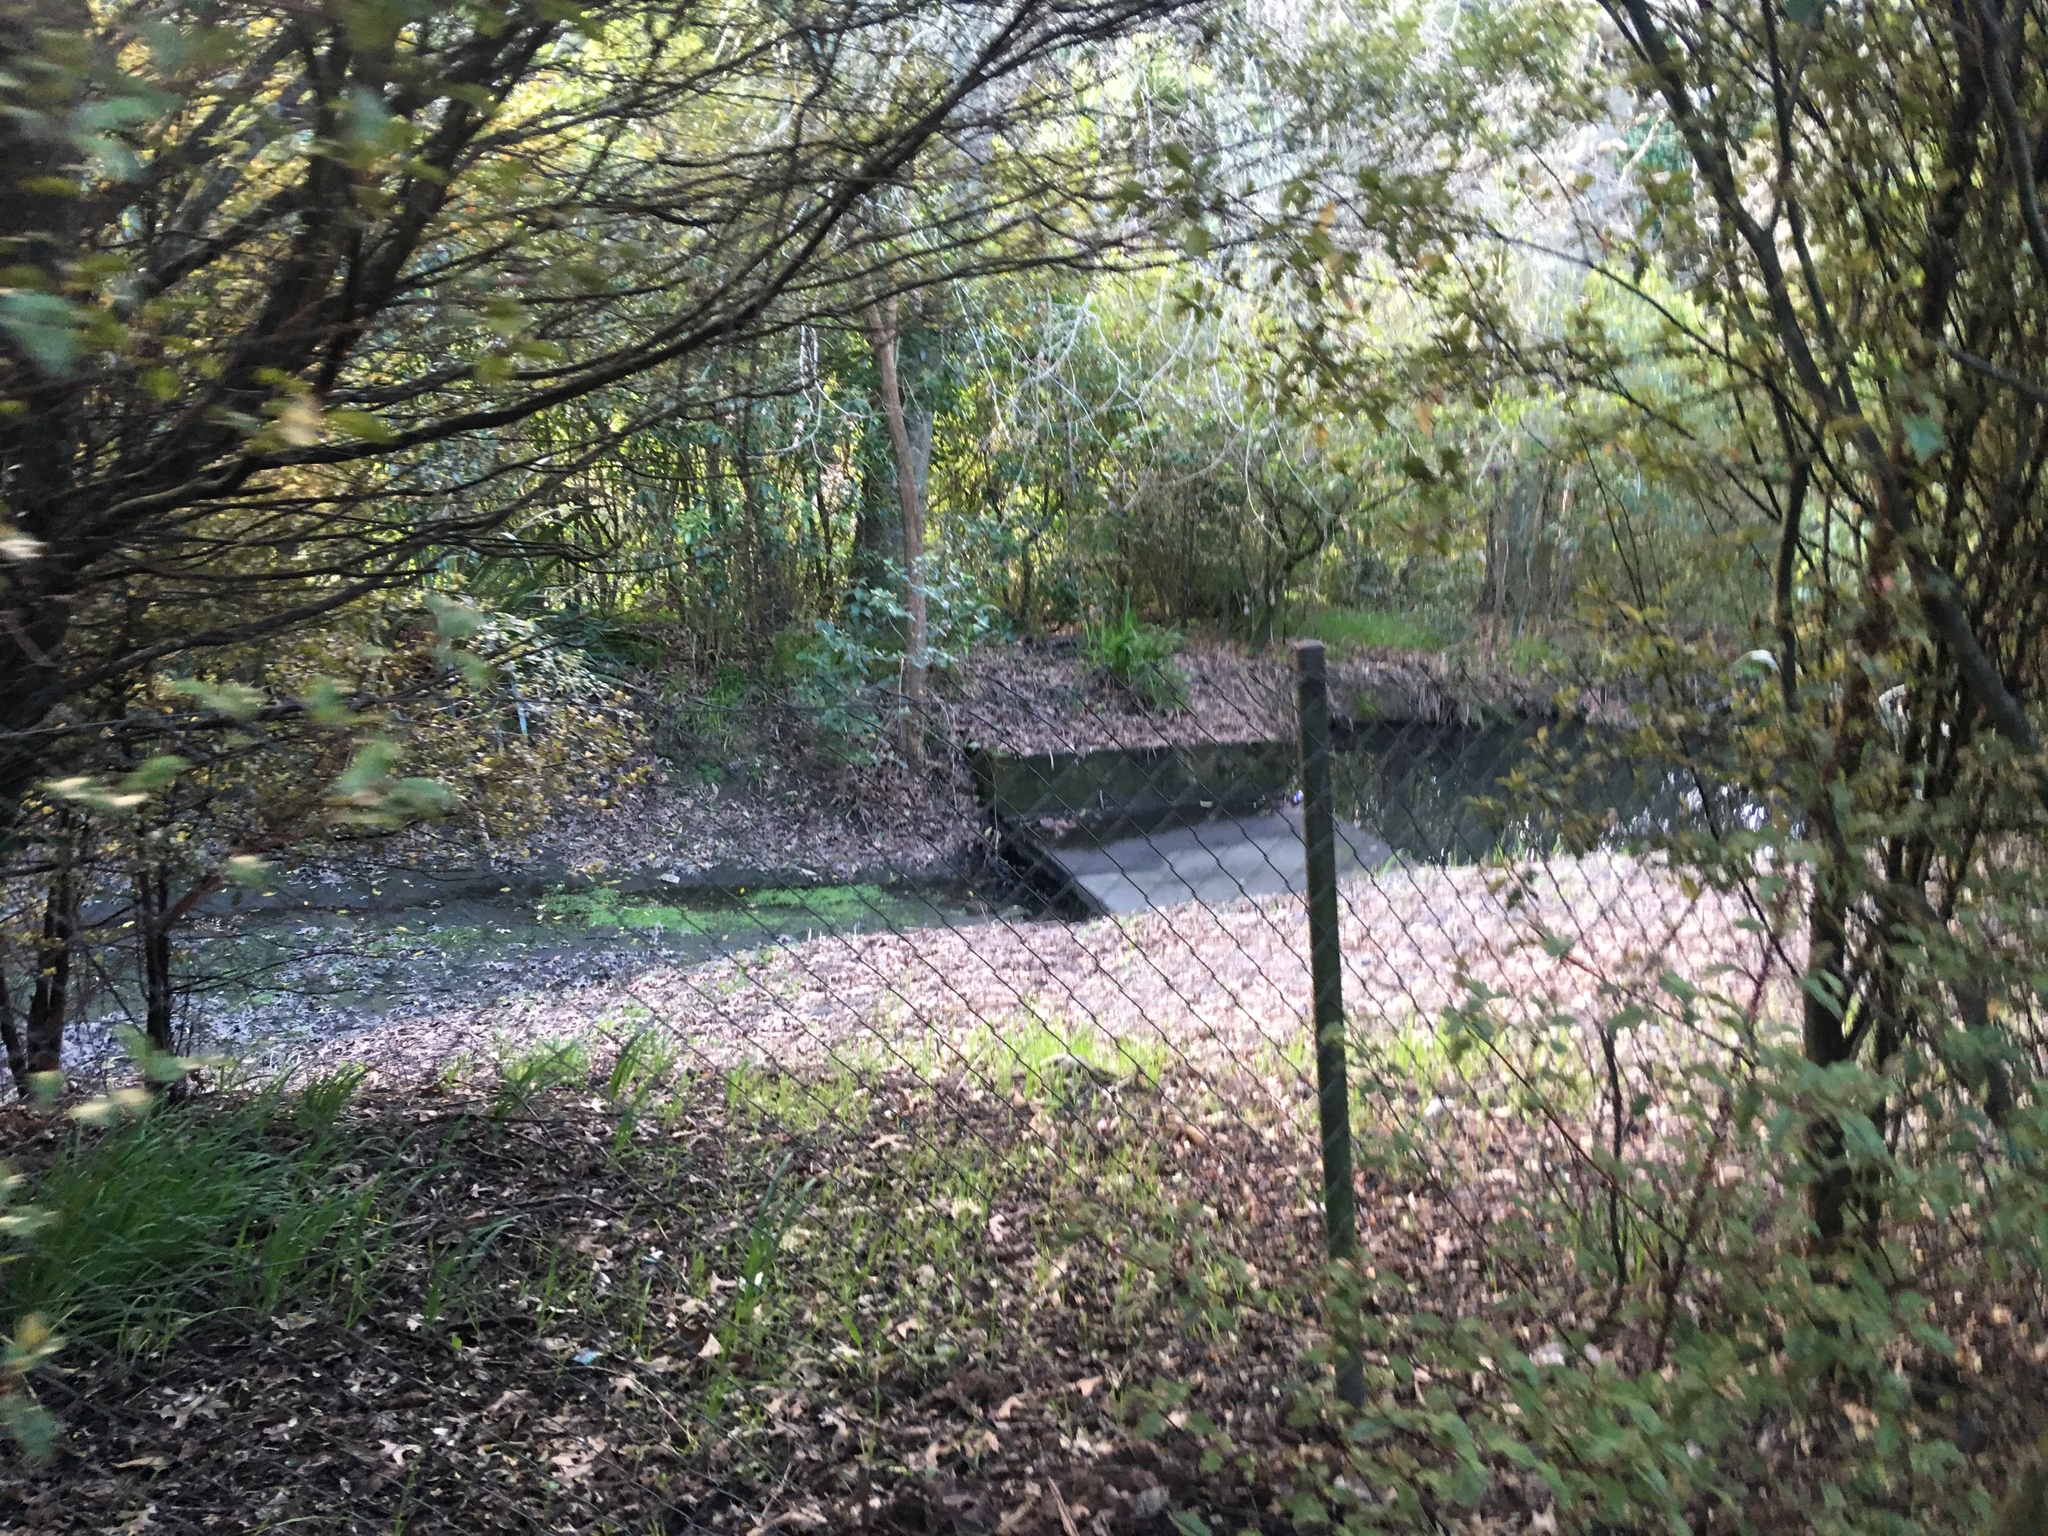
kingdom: Plantae
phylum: Tracheophyta
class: Magnoliopsida
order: Ericales
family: Primulaceae
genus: Myrsine
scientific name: Myrsine australis
